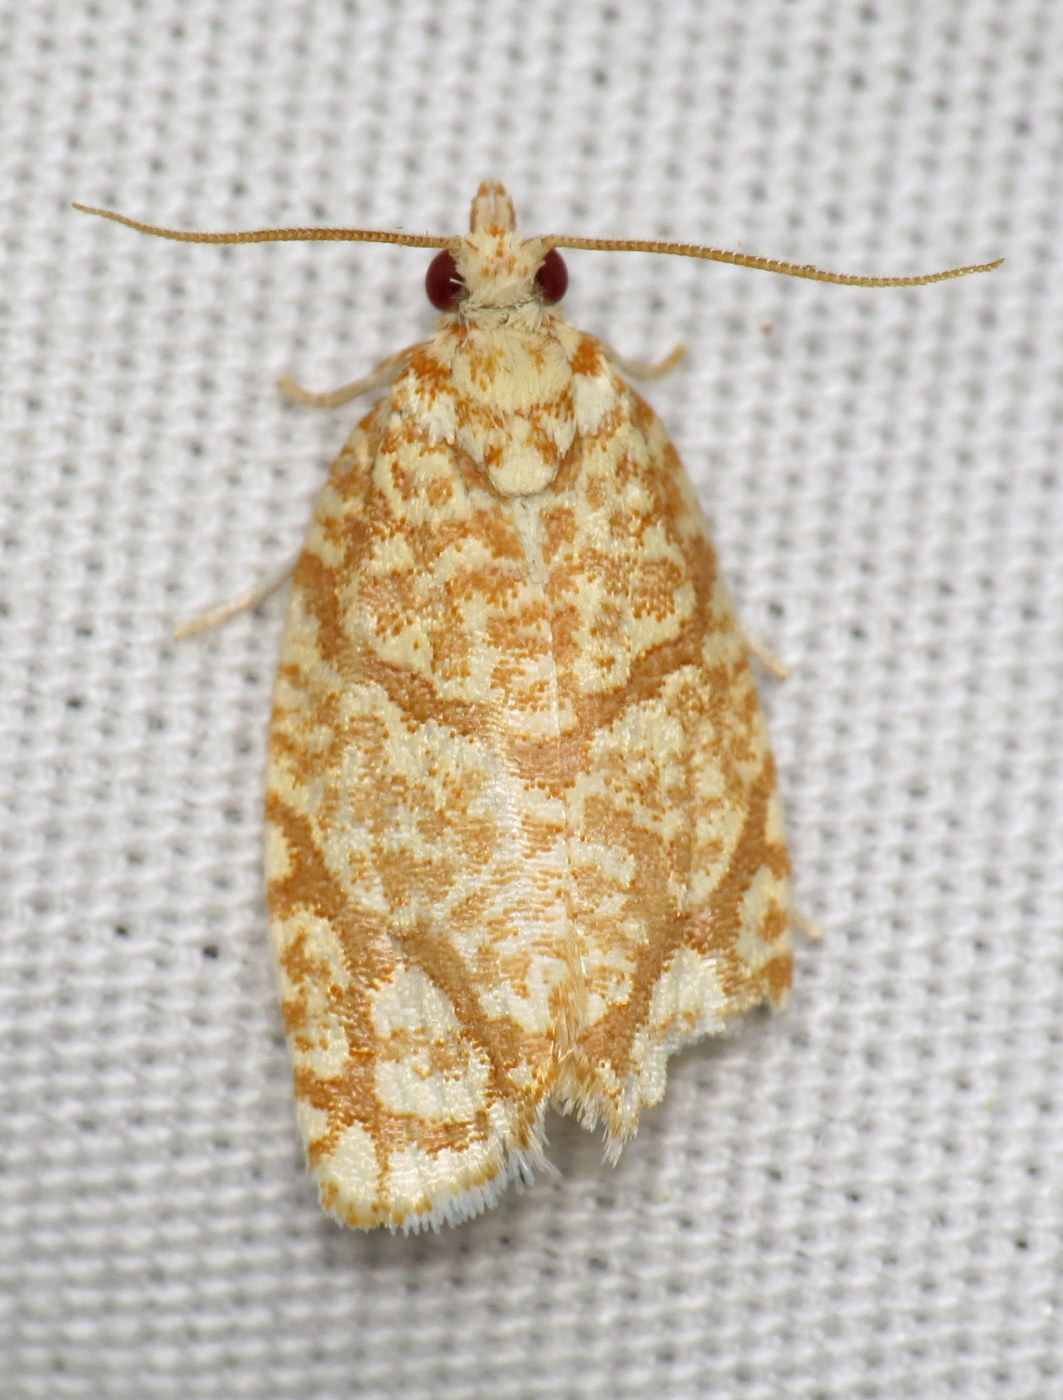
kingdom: Animalia
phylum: Arthropoda
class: Insecta
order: Lepidoptera
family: Tortricidae
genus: Argyrotaenia
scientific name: Argyrotaenia quercifoliana
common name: Yellow-winged oak leafroller moth
